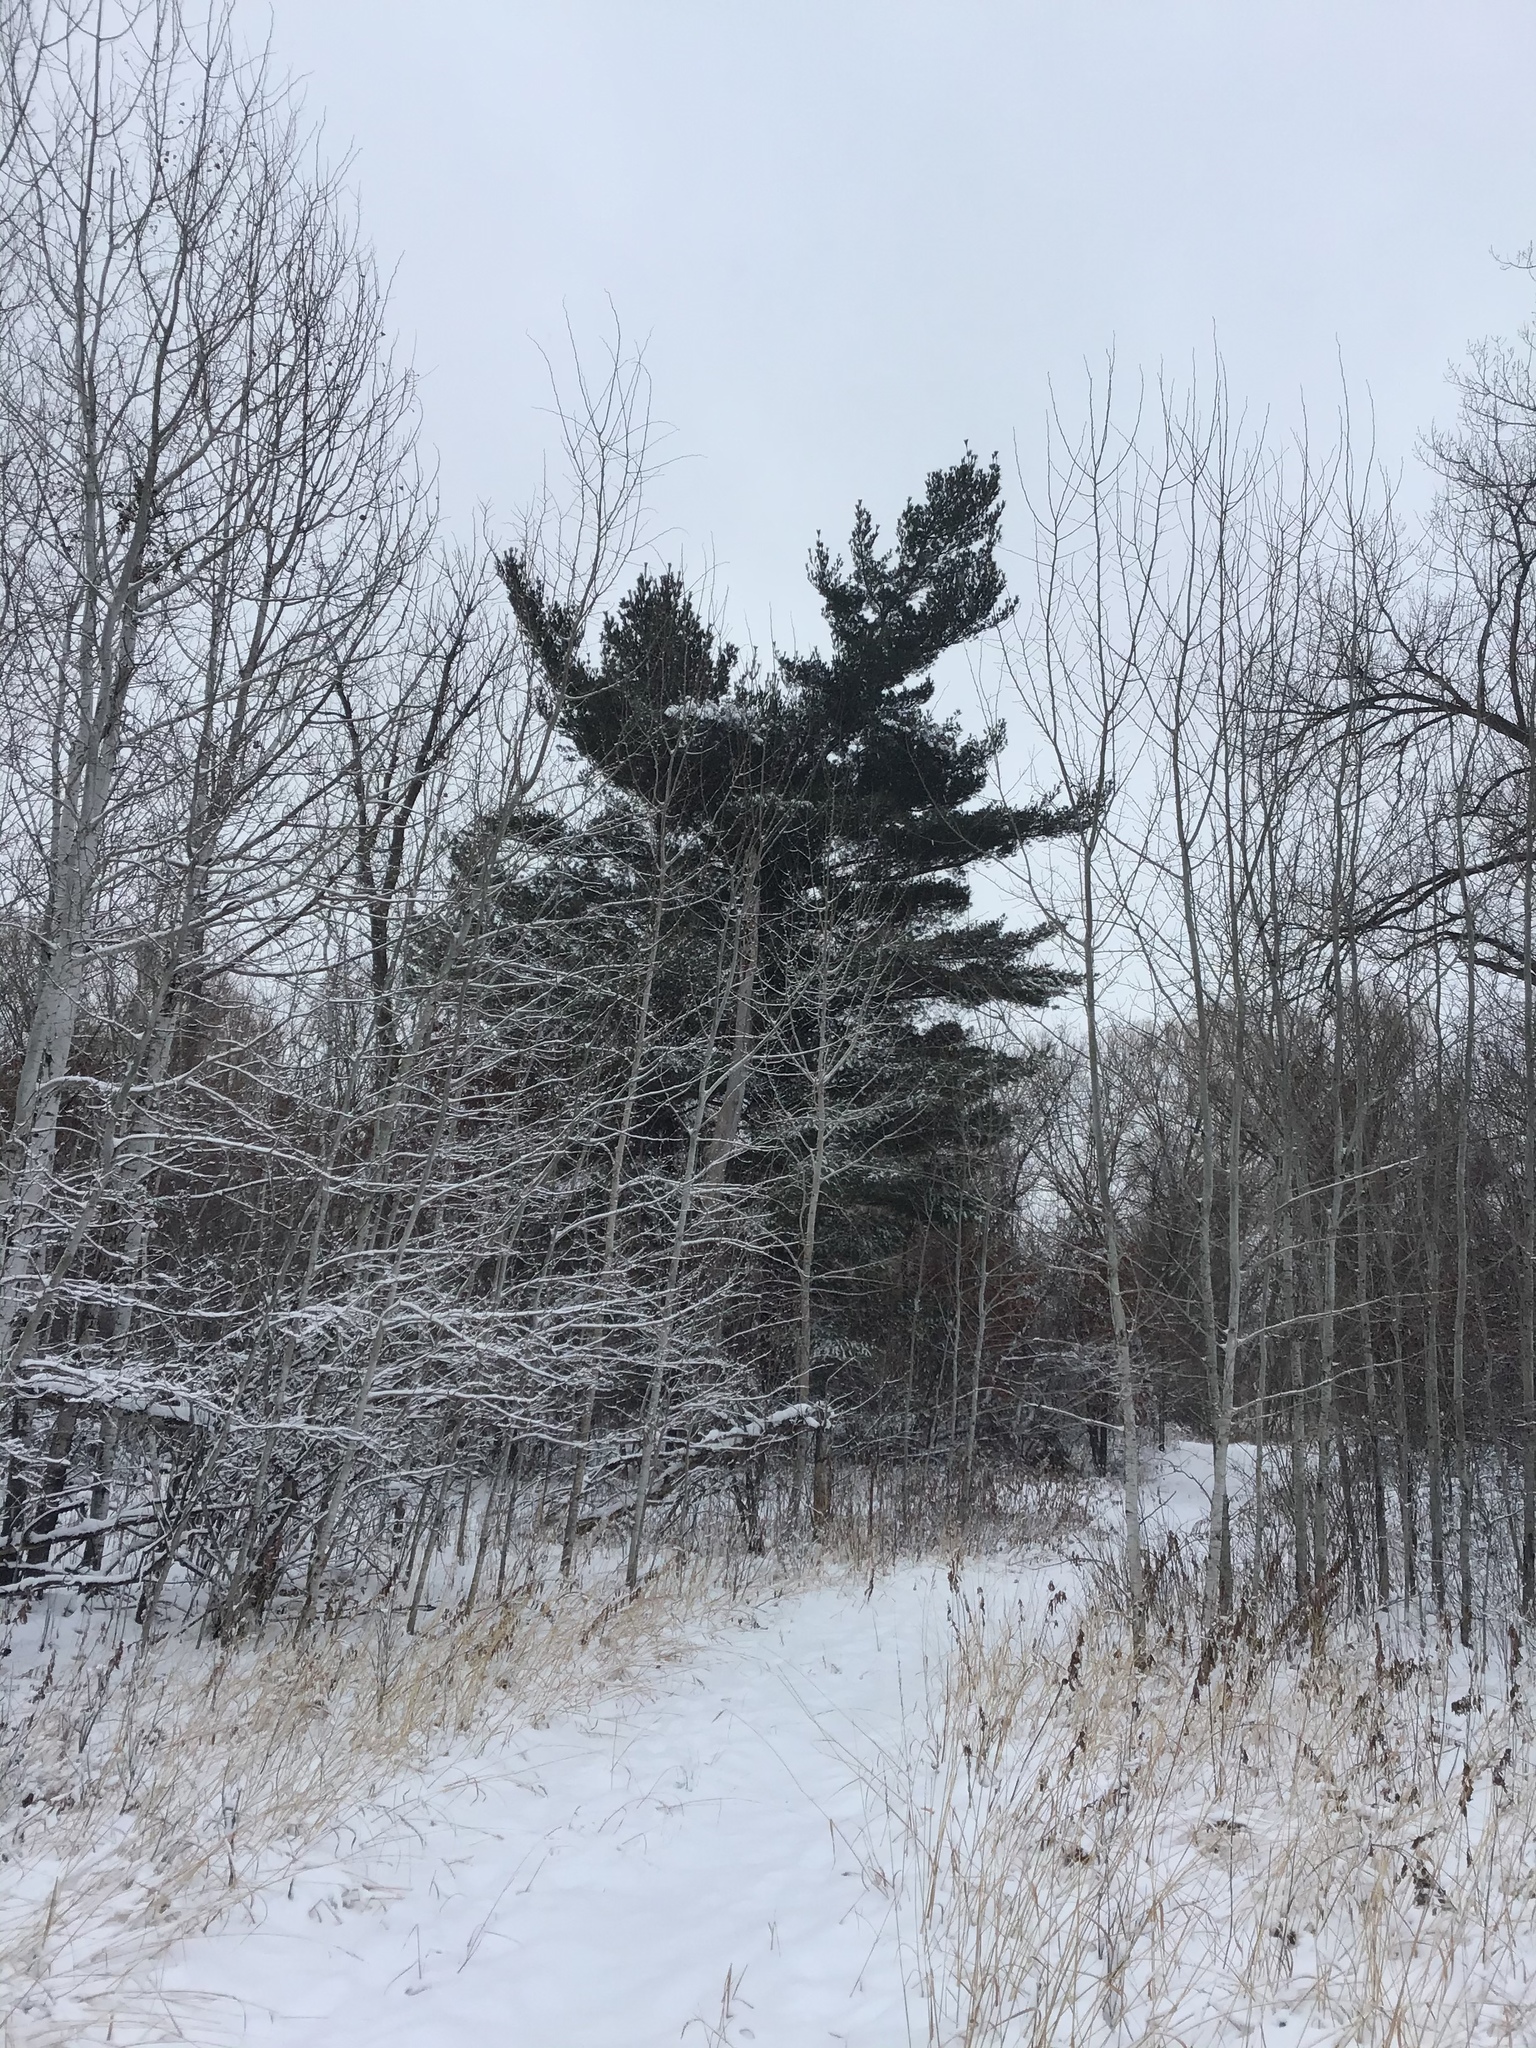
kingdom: Plantae
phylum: Tracheophyta
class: Pinopsida
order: Pinales
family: Pinaceae
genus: Pinus
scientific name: Pinus strobus
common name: Weymouth pine
